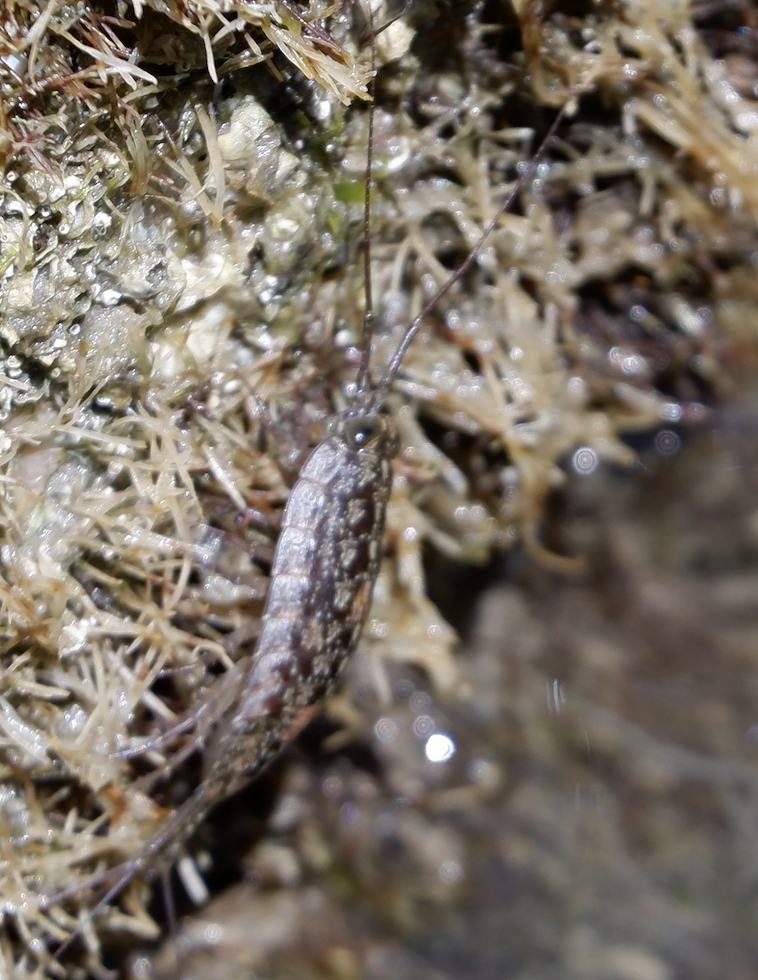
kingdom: Animalia
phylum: Arthropoda
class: Malacostraca
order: Isopoda
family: Ligiidae
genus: Ligia
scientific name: Ligia exotica
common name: Wharf roach
